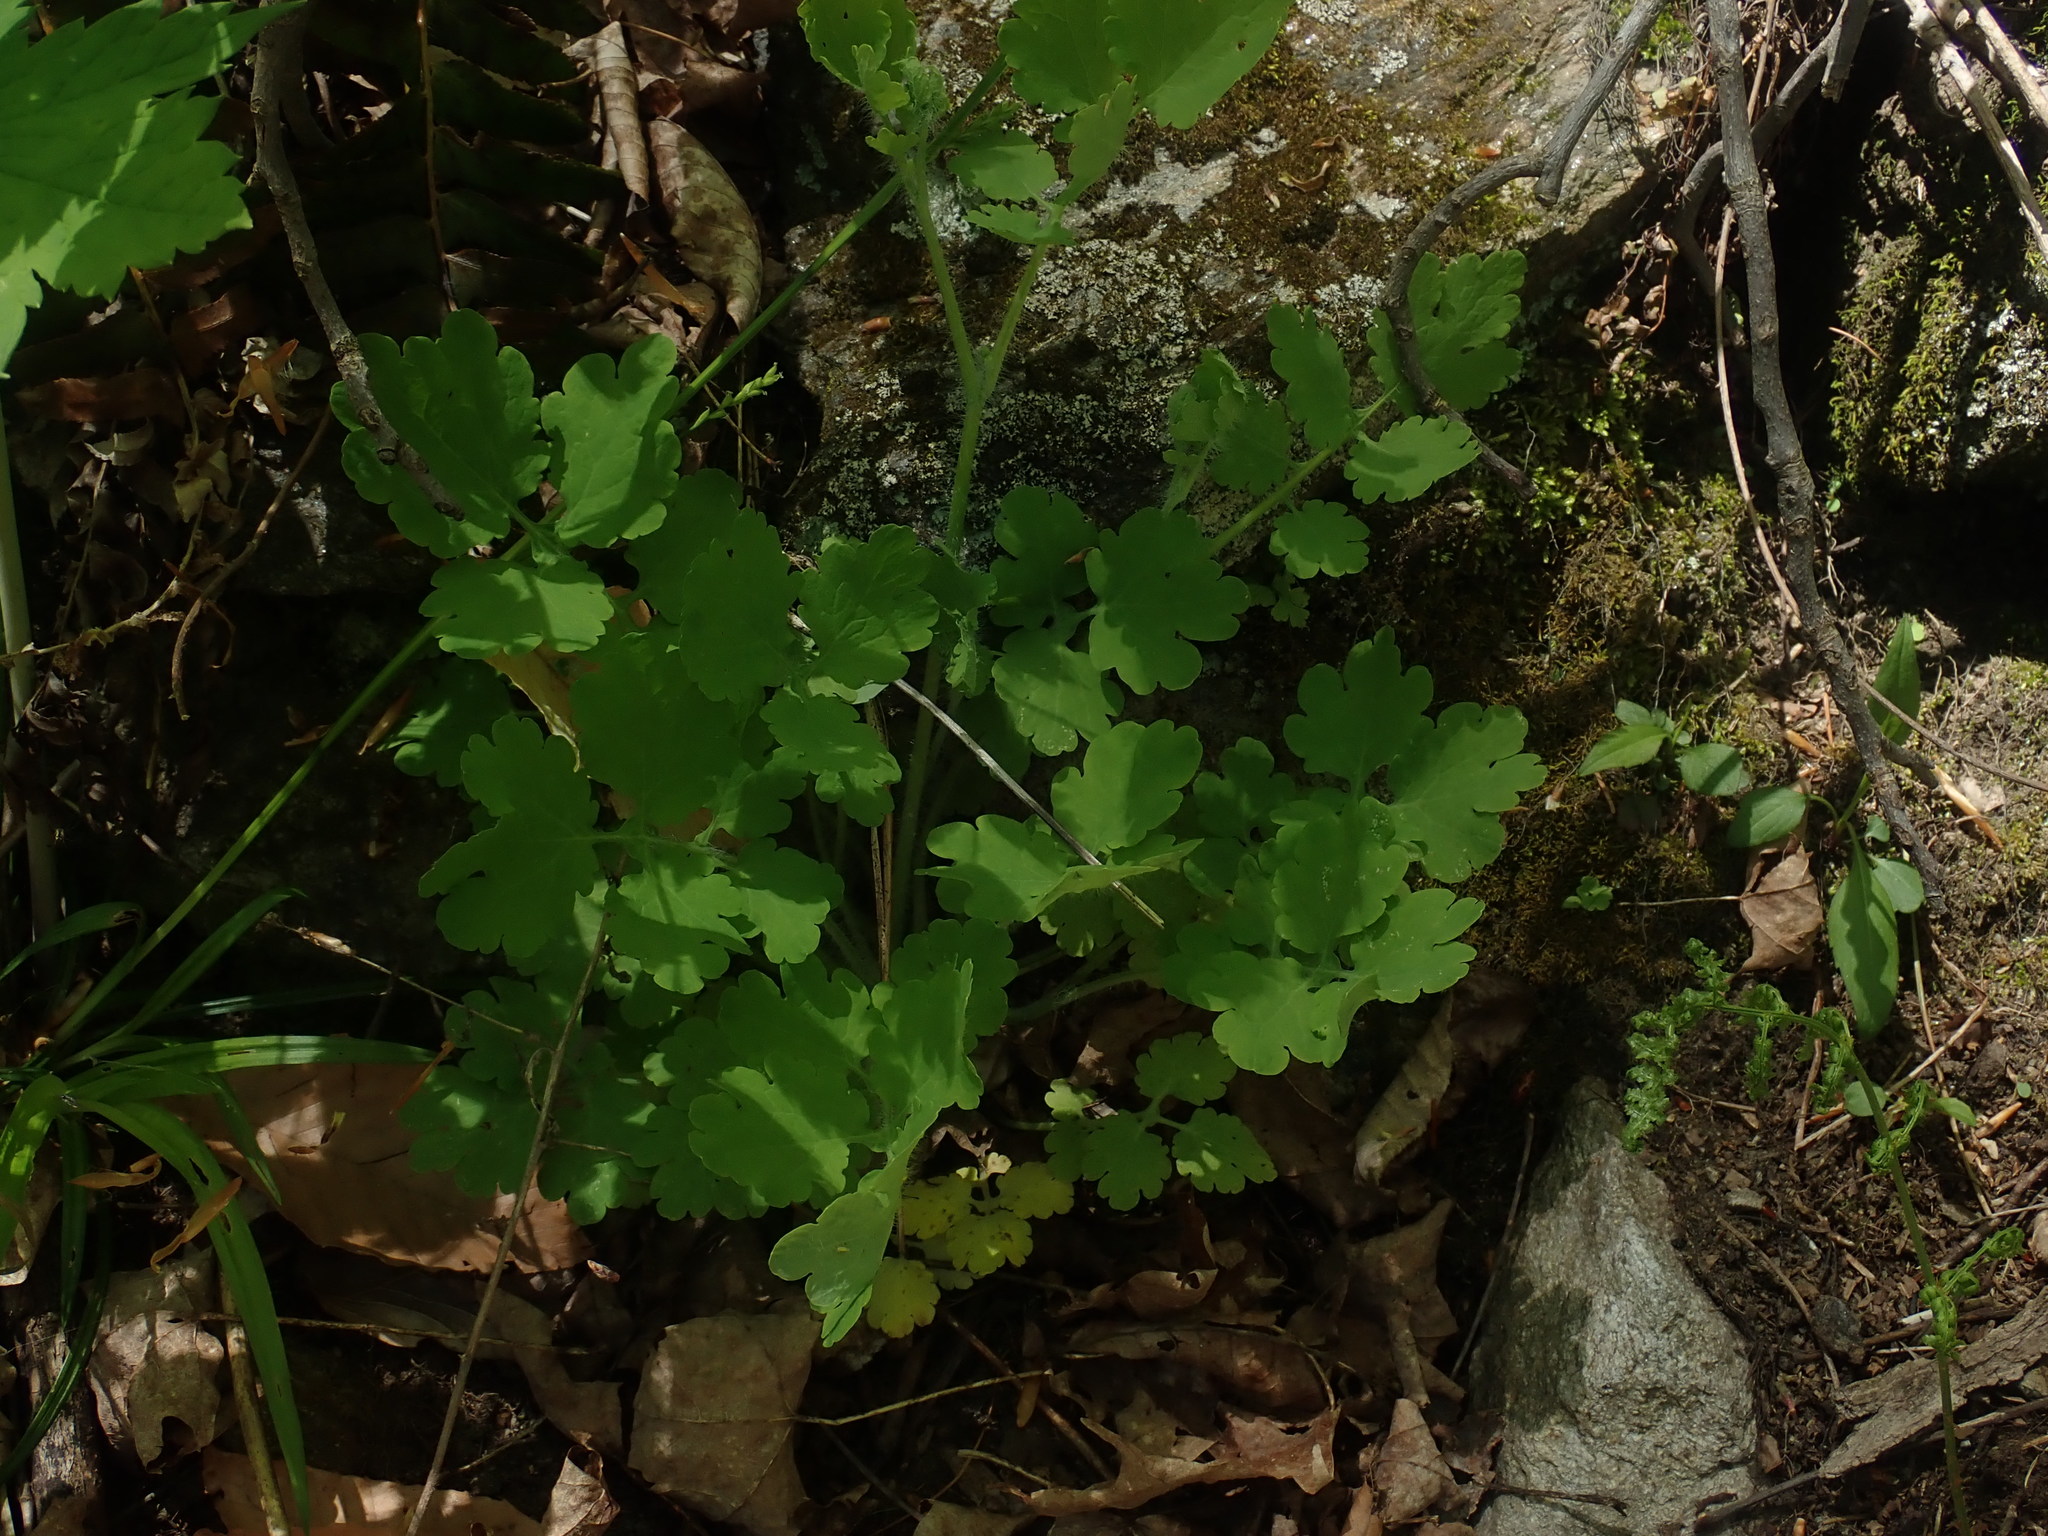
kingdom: Plantae
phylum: Tracheophyta
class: Magnoliopsida
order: Ranunculales
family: Papaveraceae
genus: Chelidonium
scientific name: Chelidonium majus
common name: Greater celandine
